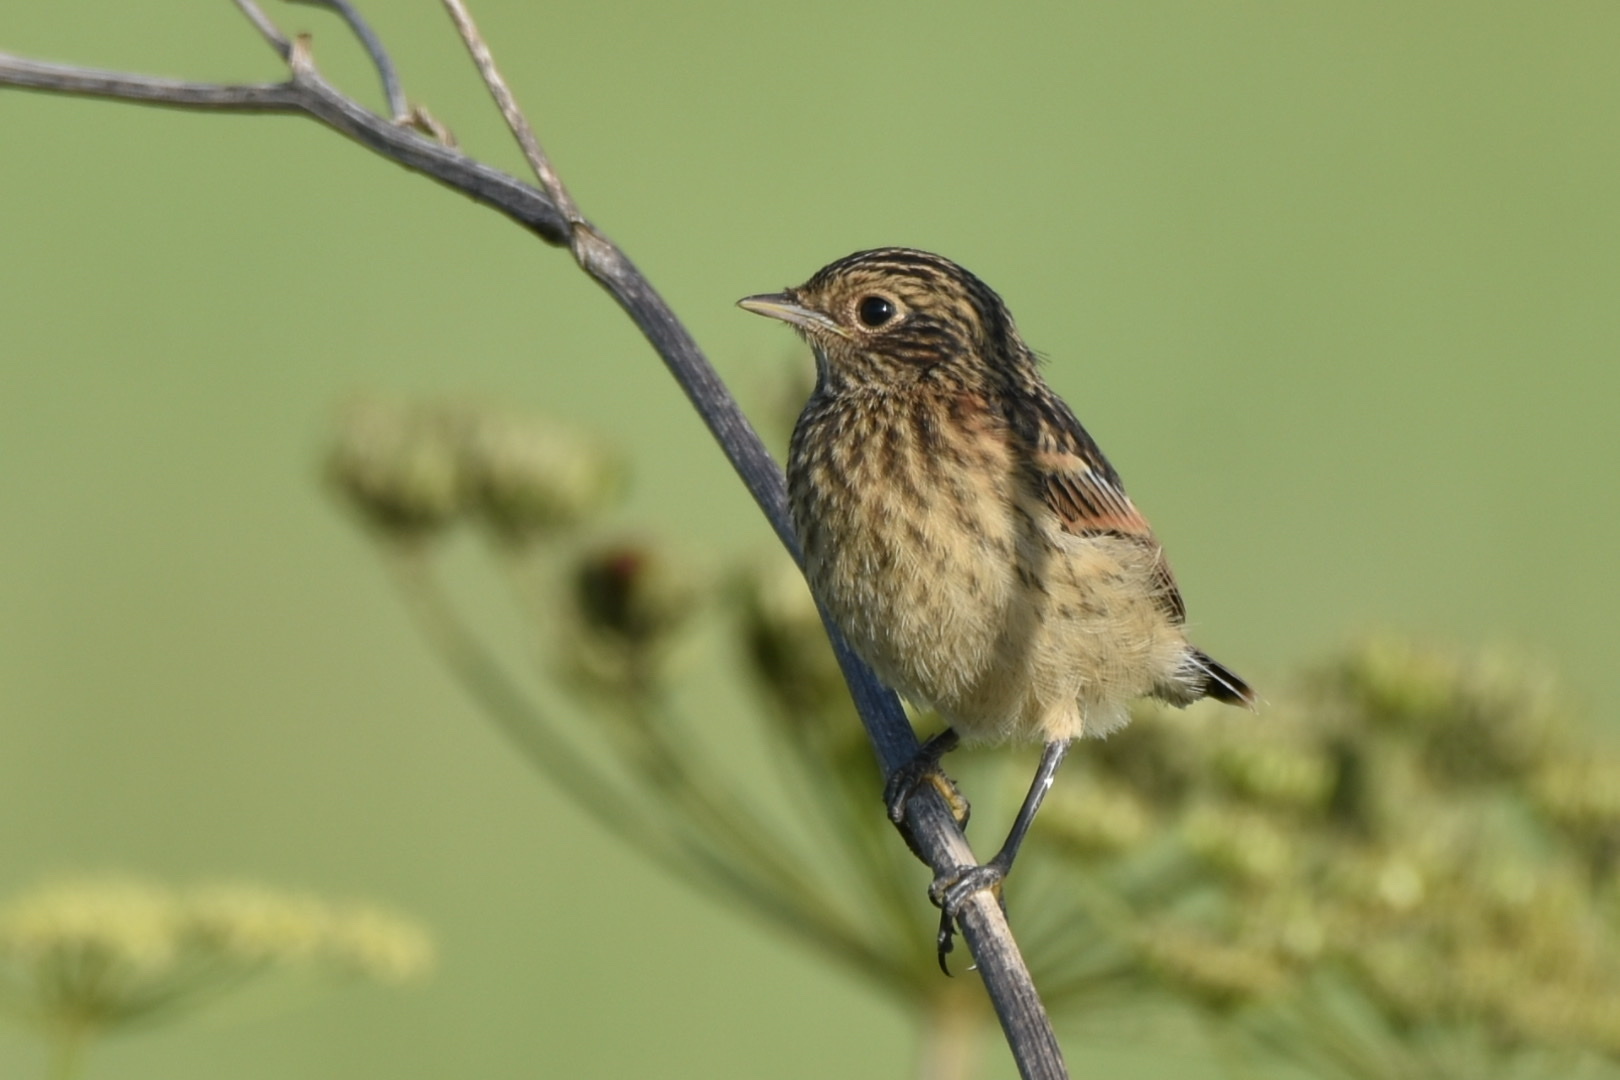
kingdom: Animalia
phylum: Chordata
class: Aves
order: Passeriformes
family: Muscicapidae
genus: Saxicola
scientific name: Saxicola maurus
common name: Siberian stonechat
